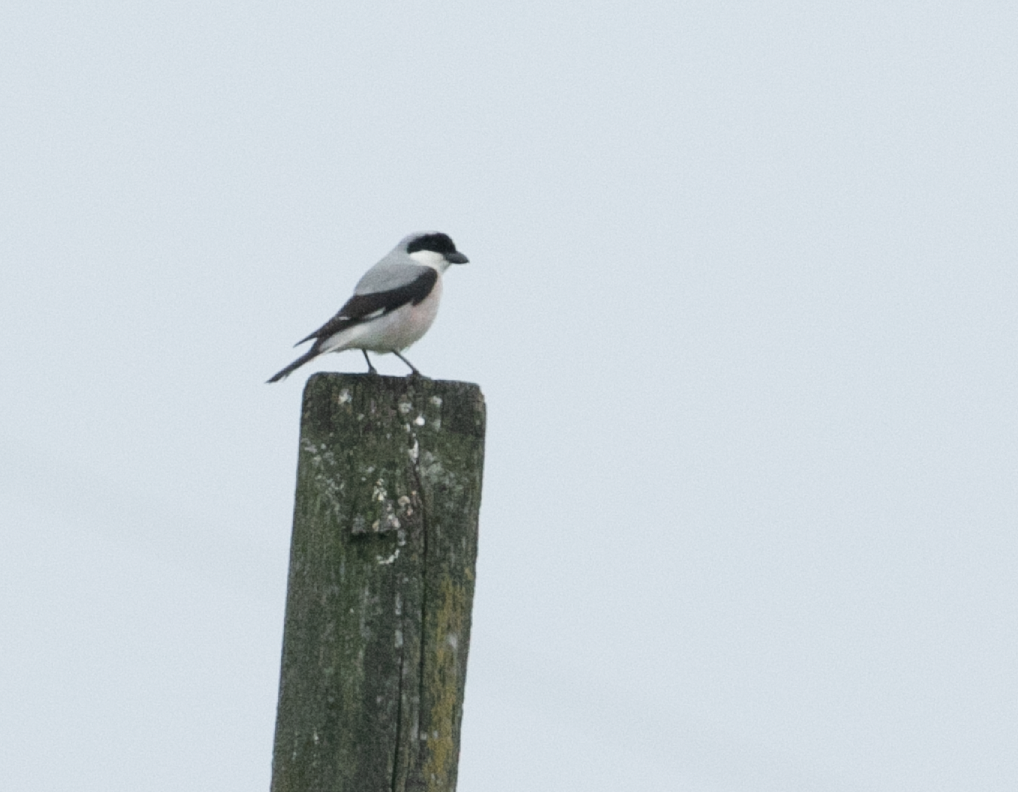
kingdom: Animalia
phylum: Chordata
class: Aves
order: Passeriformes
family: Laniidae
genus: Lanius
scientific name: Lanius minor
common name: Lesser grey shrike
